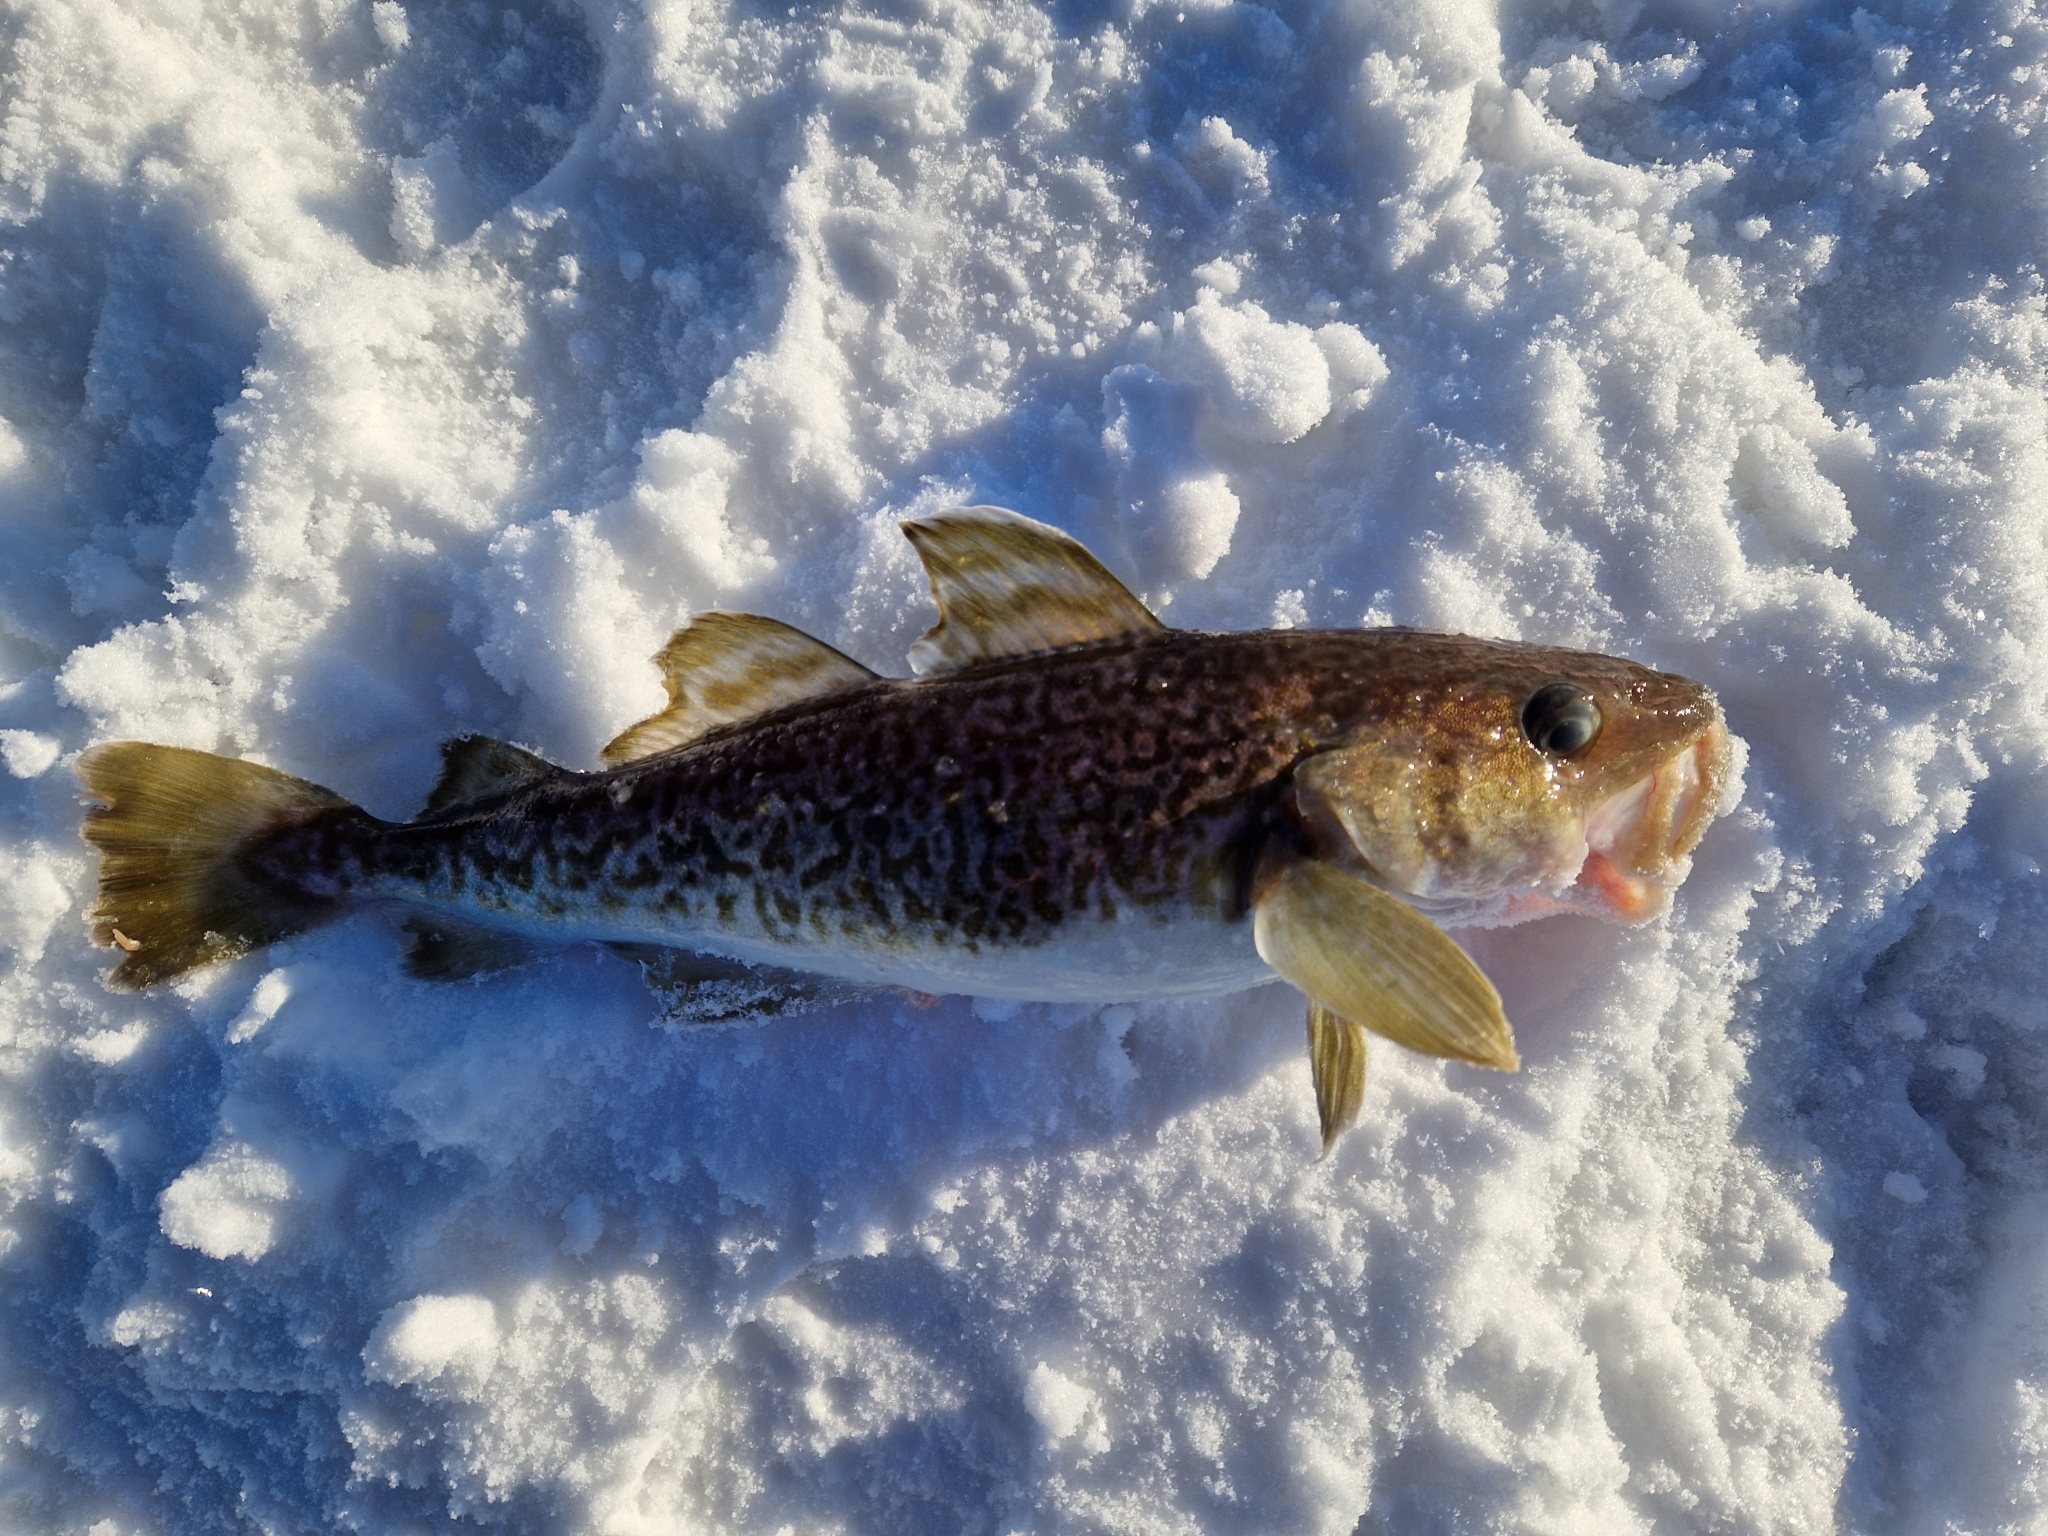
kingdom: Animalia
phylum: Chordata
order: Gadiformes
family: Gadidae
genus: Gadus
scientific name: Gadus macrocephalus
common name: Pacific cod
